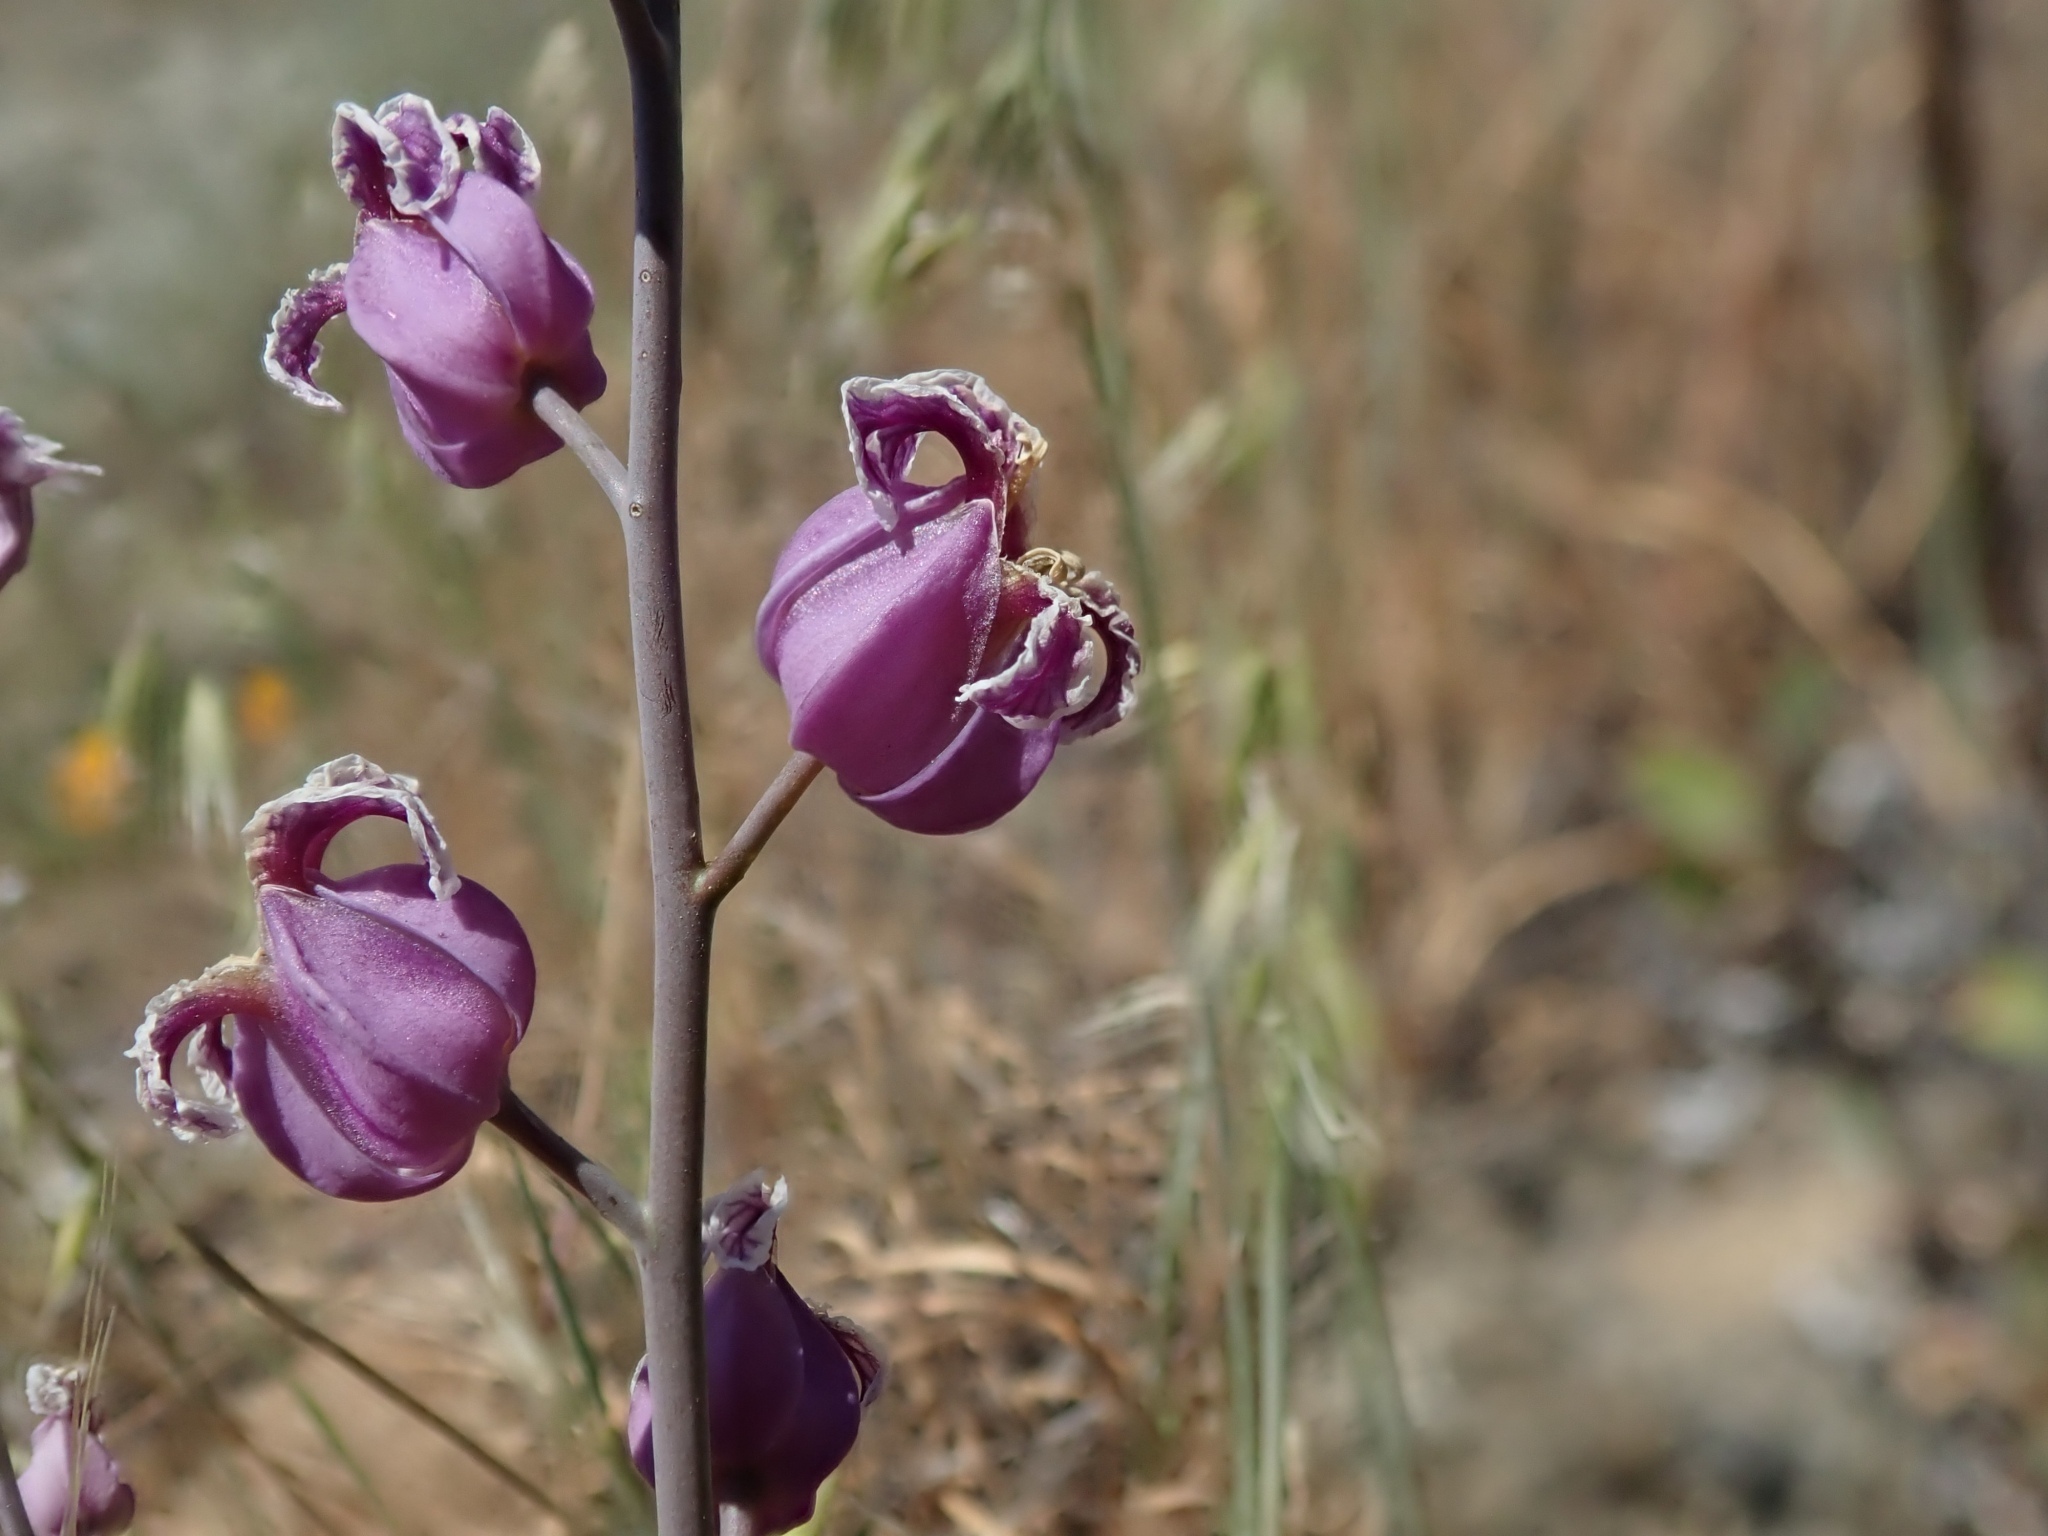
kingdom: Plantae
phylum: Tracheophyta
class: Magnoliopsida
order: Brassicales
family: Brassicaceae
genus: Streptanthus
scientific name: Streptanthus glandulosus
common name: Jewel-flower
